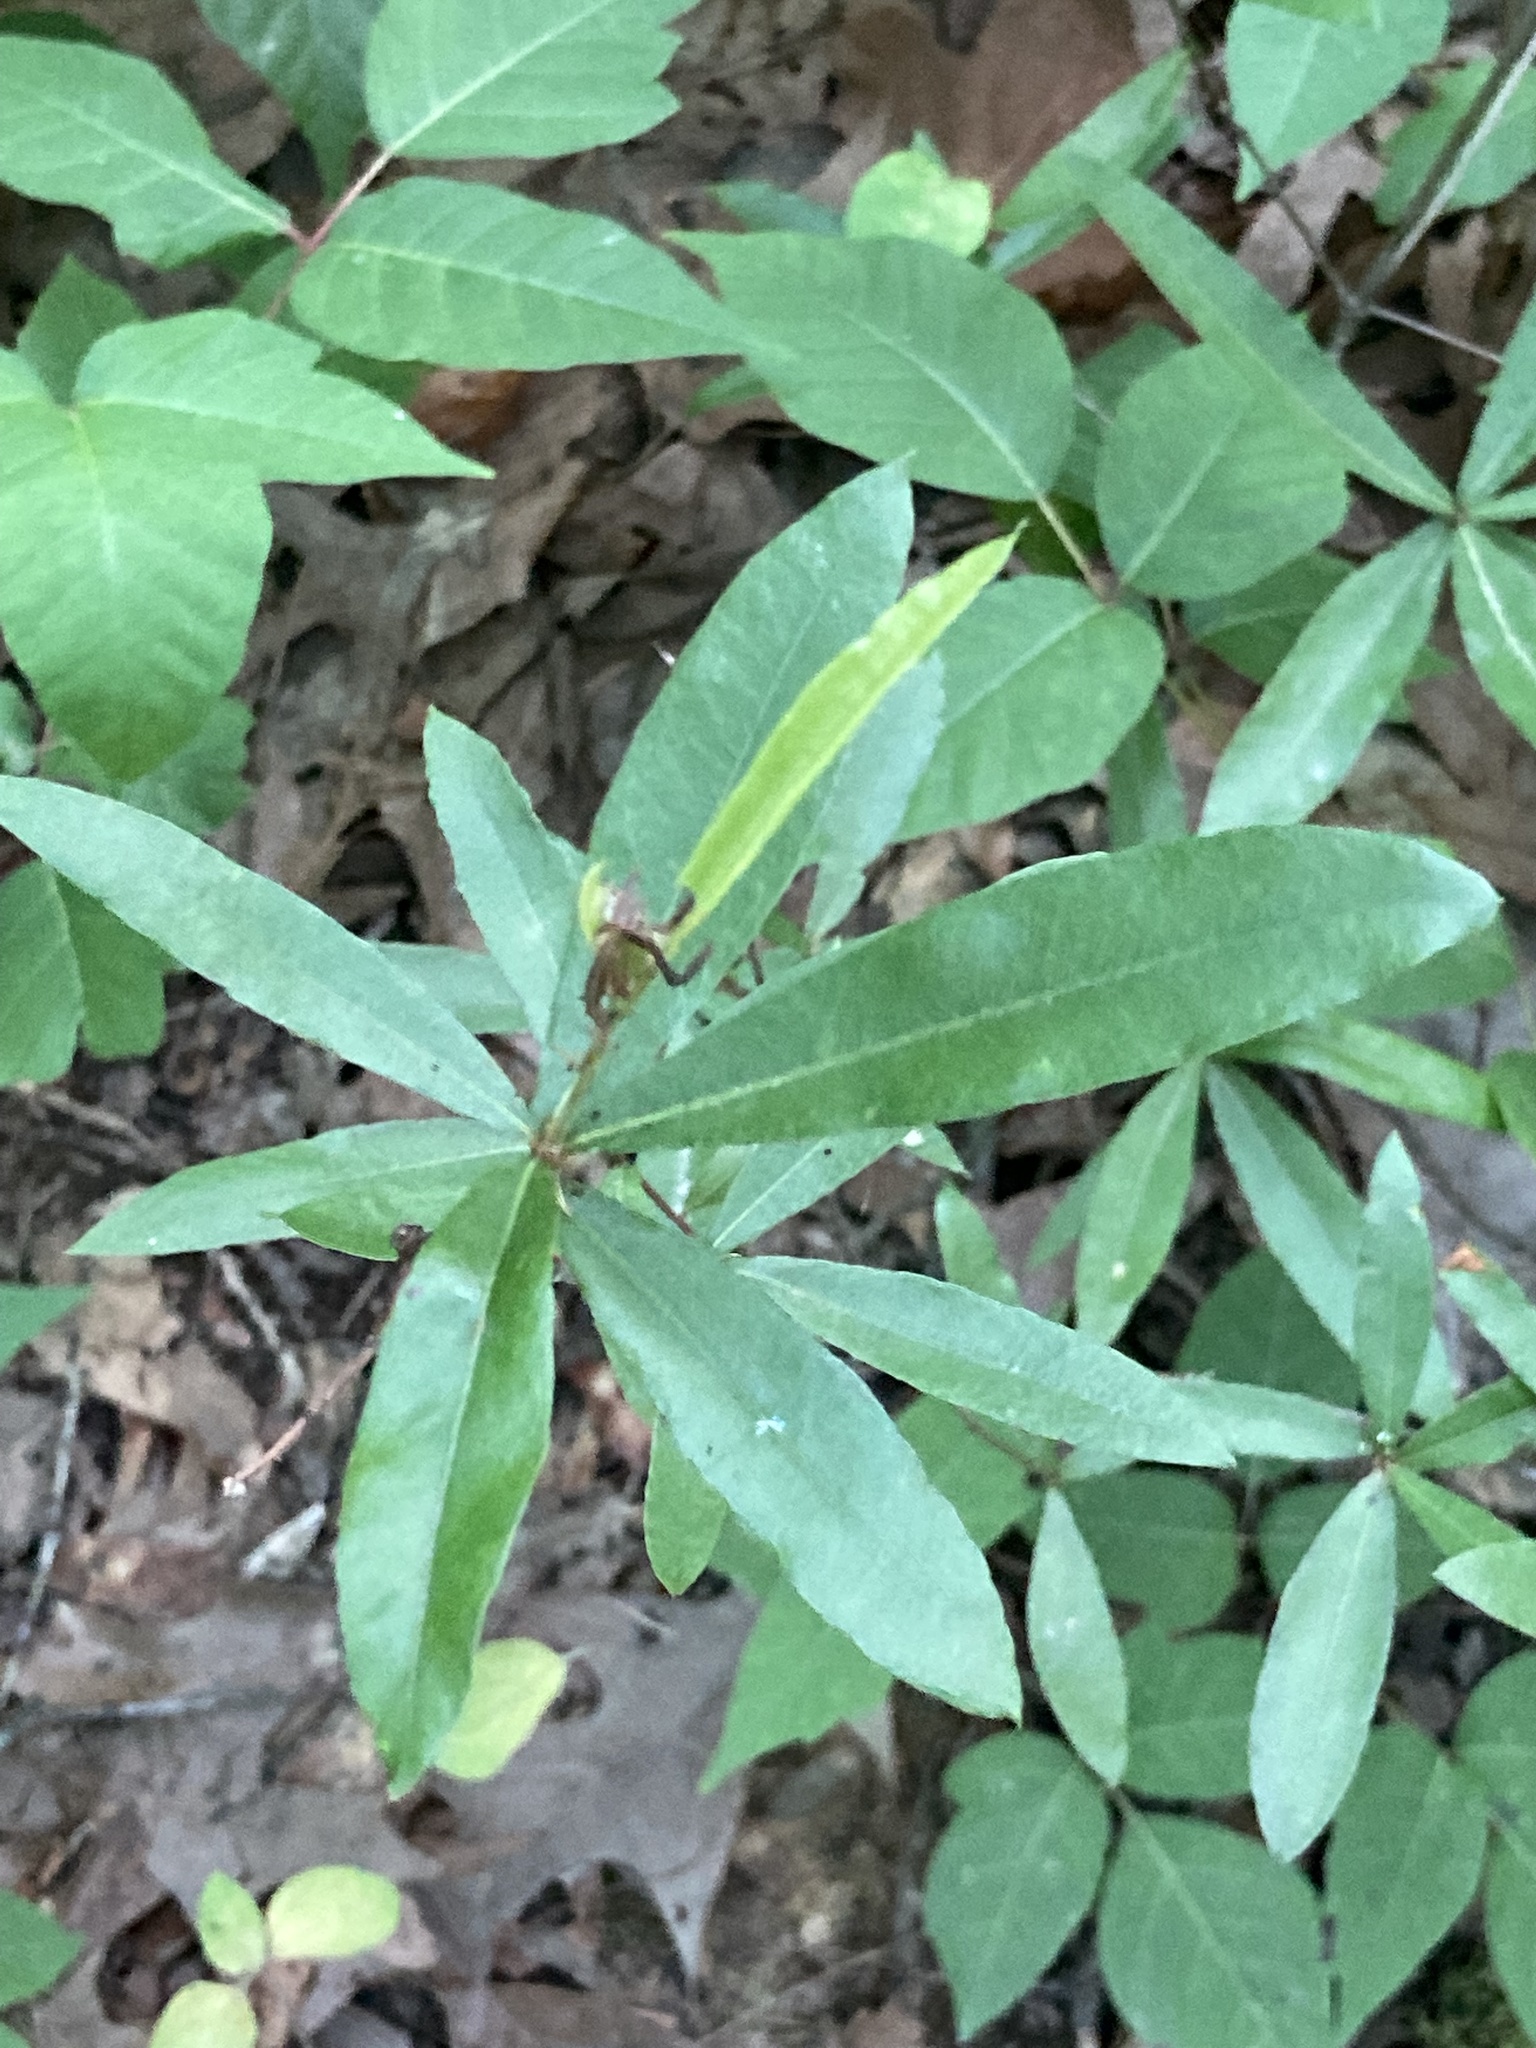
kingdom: Plantae
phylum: Tracheophyta
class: Magnoliopsida
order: Fagales
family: Fagaceae
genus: Quercus
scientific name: Quercus phellos
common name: Willow oak
